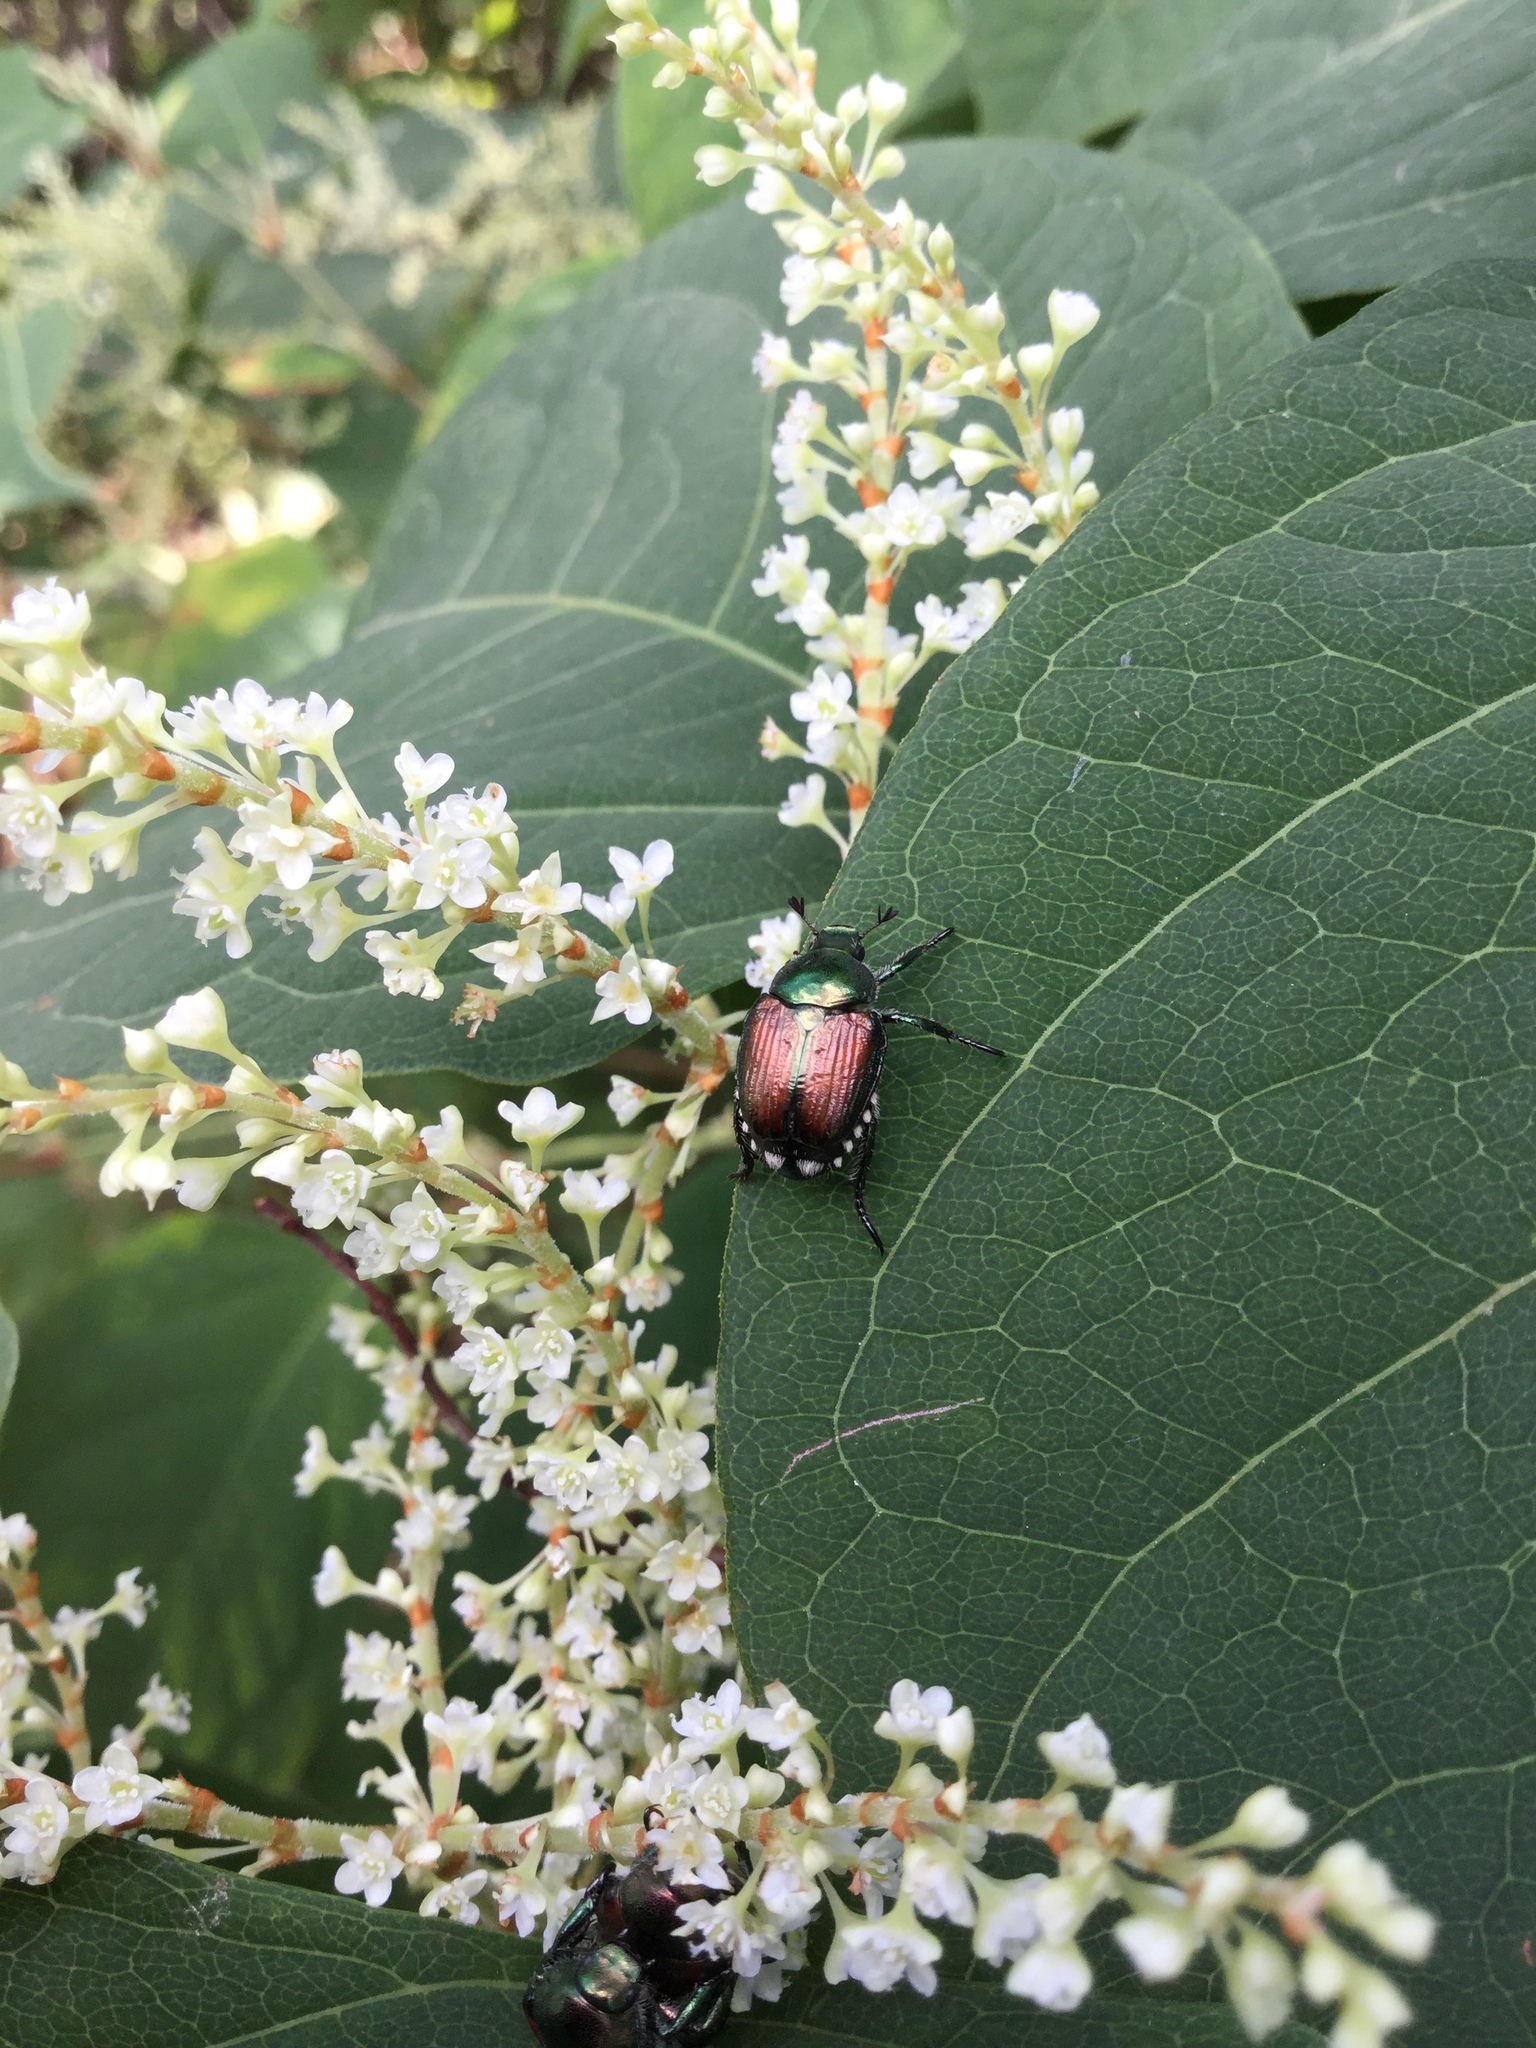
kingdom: Animalia
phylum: Arthropoda
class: Insecta
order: Coleoptera
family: Scarabaeidae
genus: Popillia
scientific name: Popillia japonica
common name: Japanese beetle
